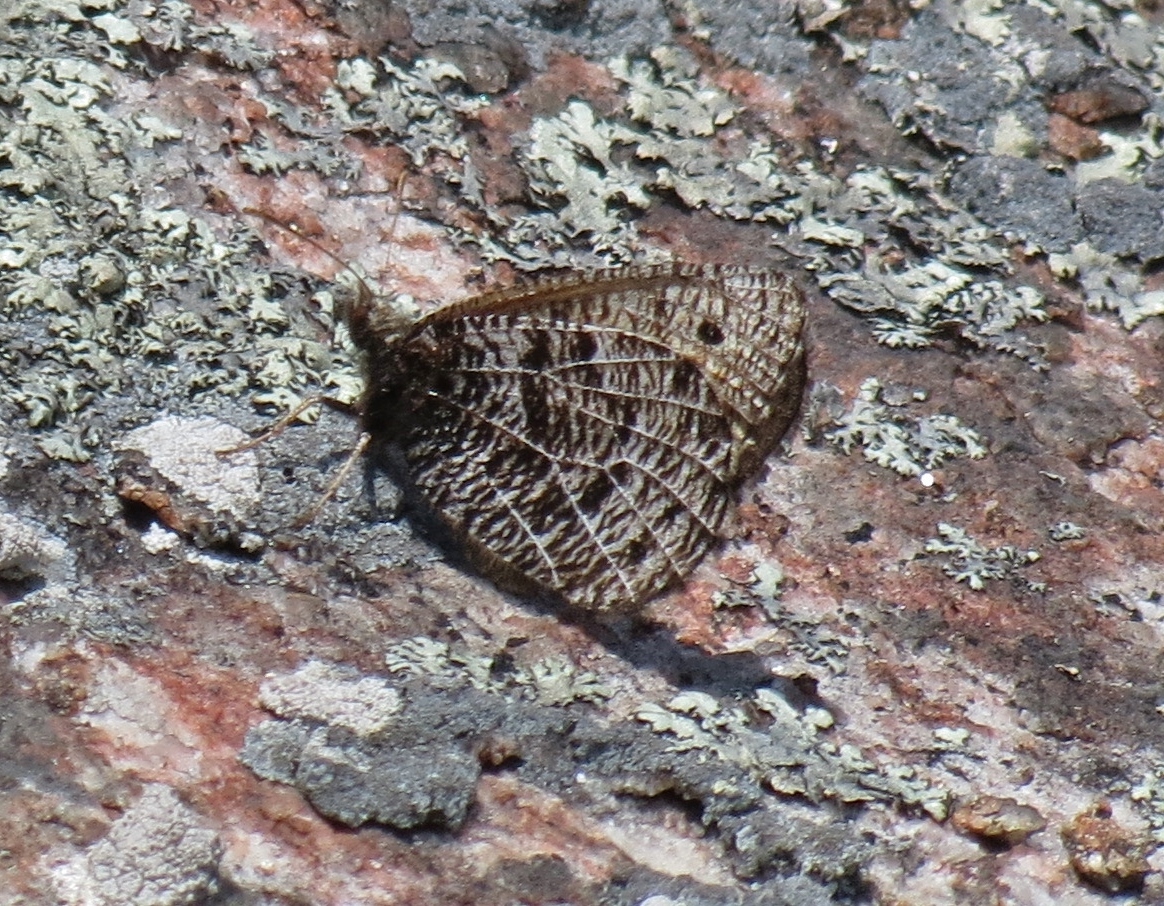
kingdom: Animalia
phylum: Arthropoda
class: Insecta
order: Lepidoptera
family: Nymphalidae
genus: Oeneis
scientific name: Oeneis chryxus
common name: Chryxus arctic
